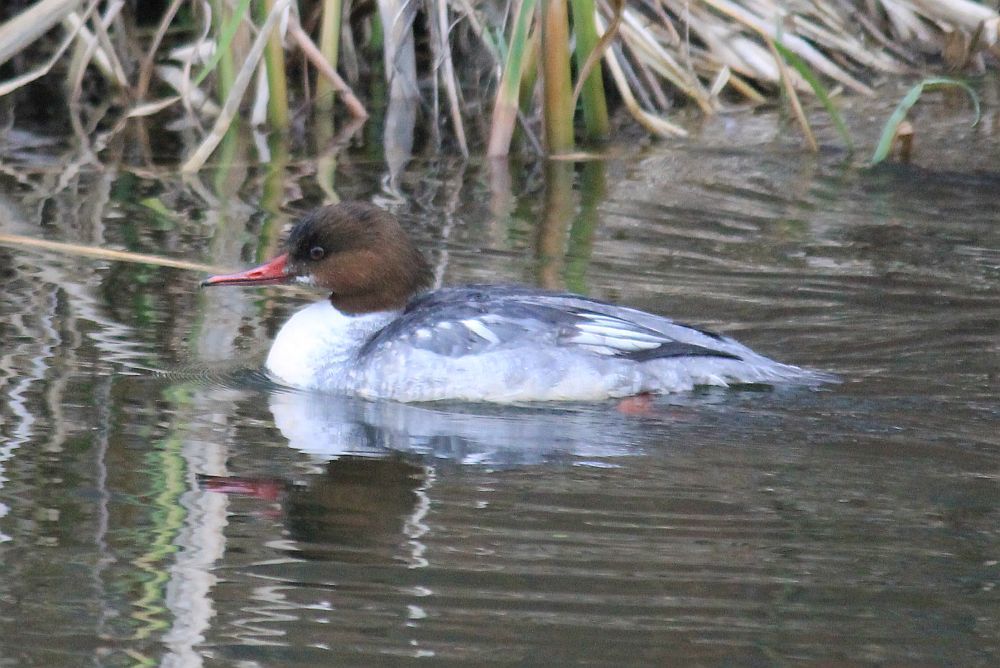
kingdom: Animalia
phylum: Chordata
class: Aves
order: Anseriformes
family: Anatidae
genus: Mergus
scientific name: Mergus merganser
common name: Common merganser
